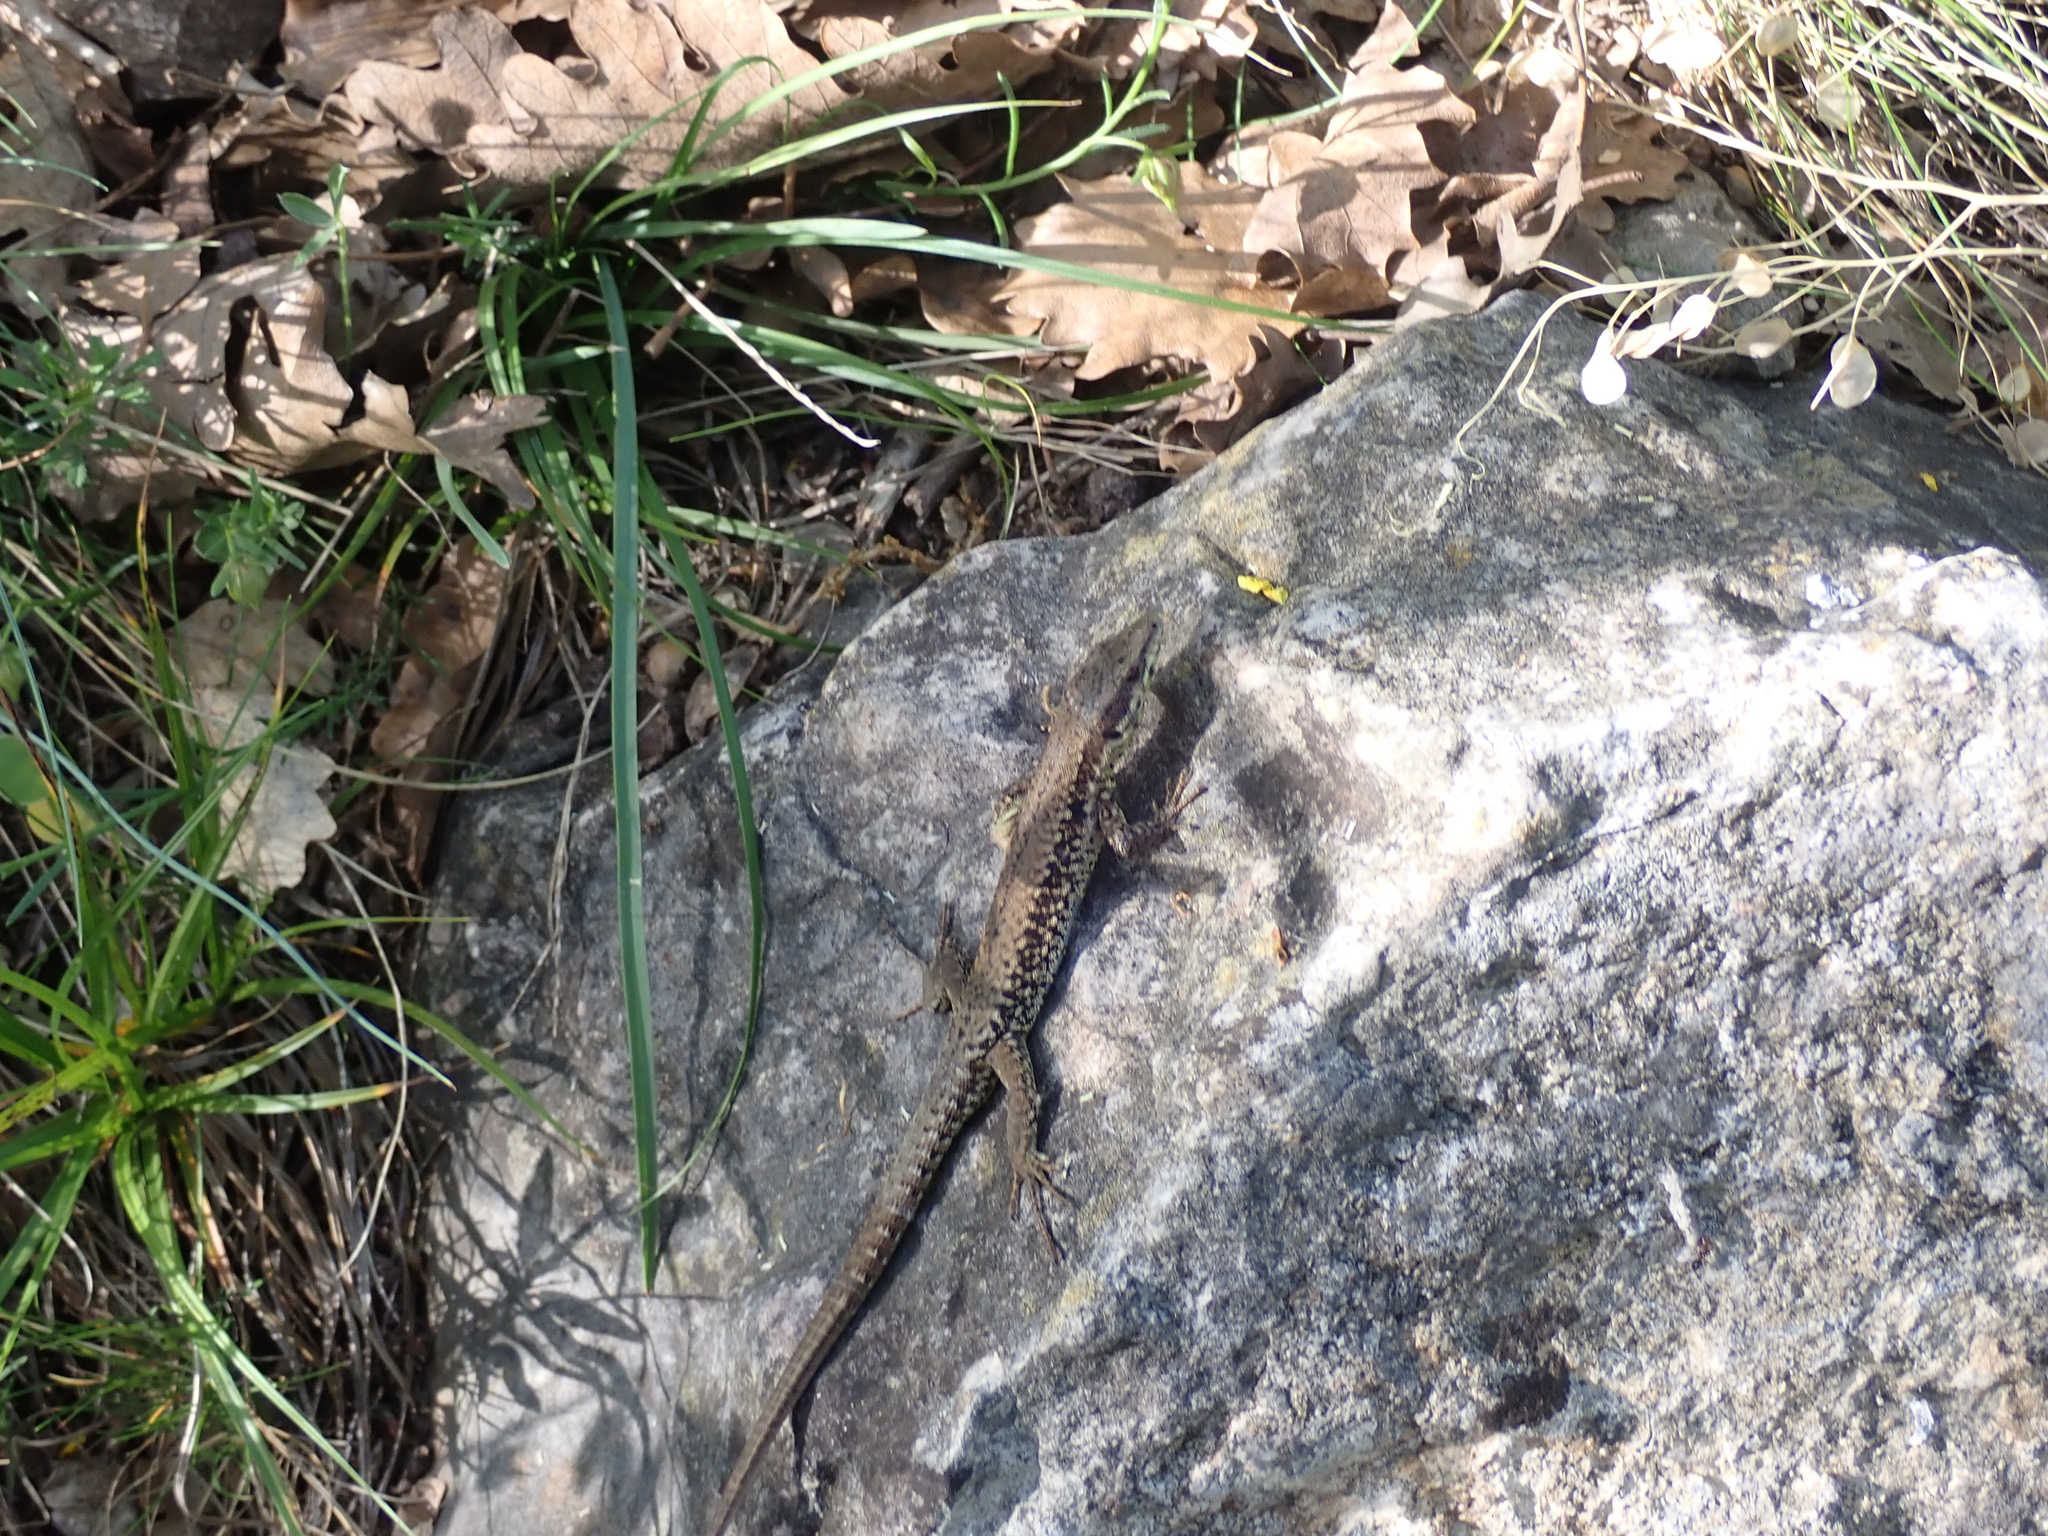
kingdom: Animalia
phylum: Chordata
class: Squamata
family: Lacertidae
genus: Podarcis
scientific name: Podarcis muralis
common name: Common wall lizard
